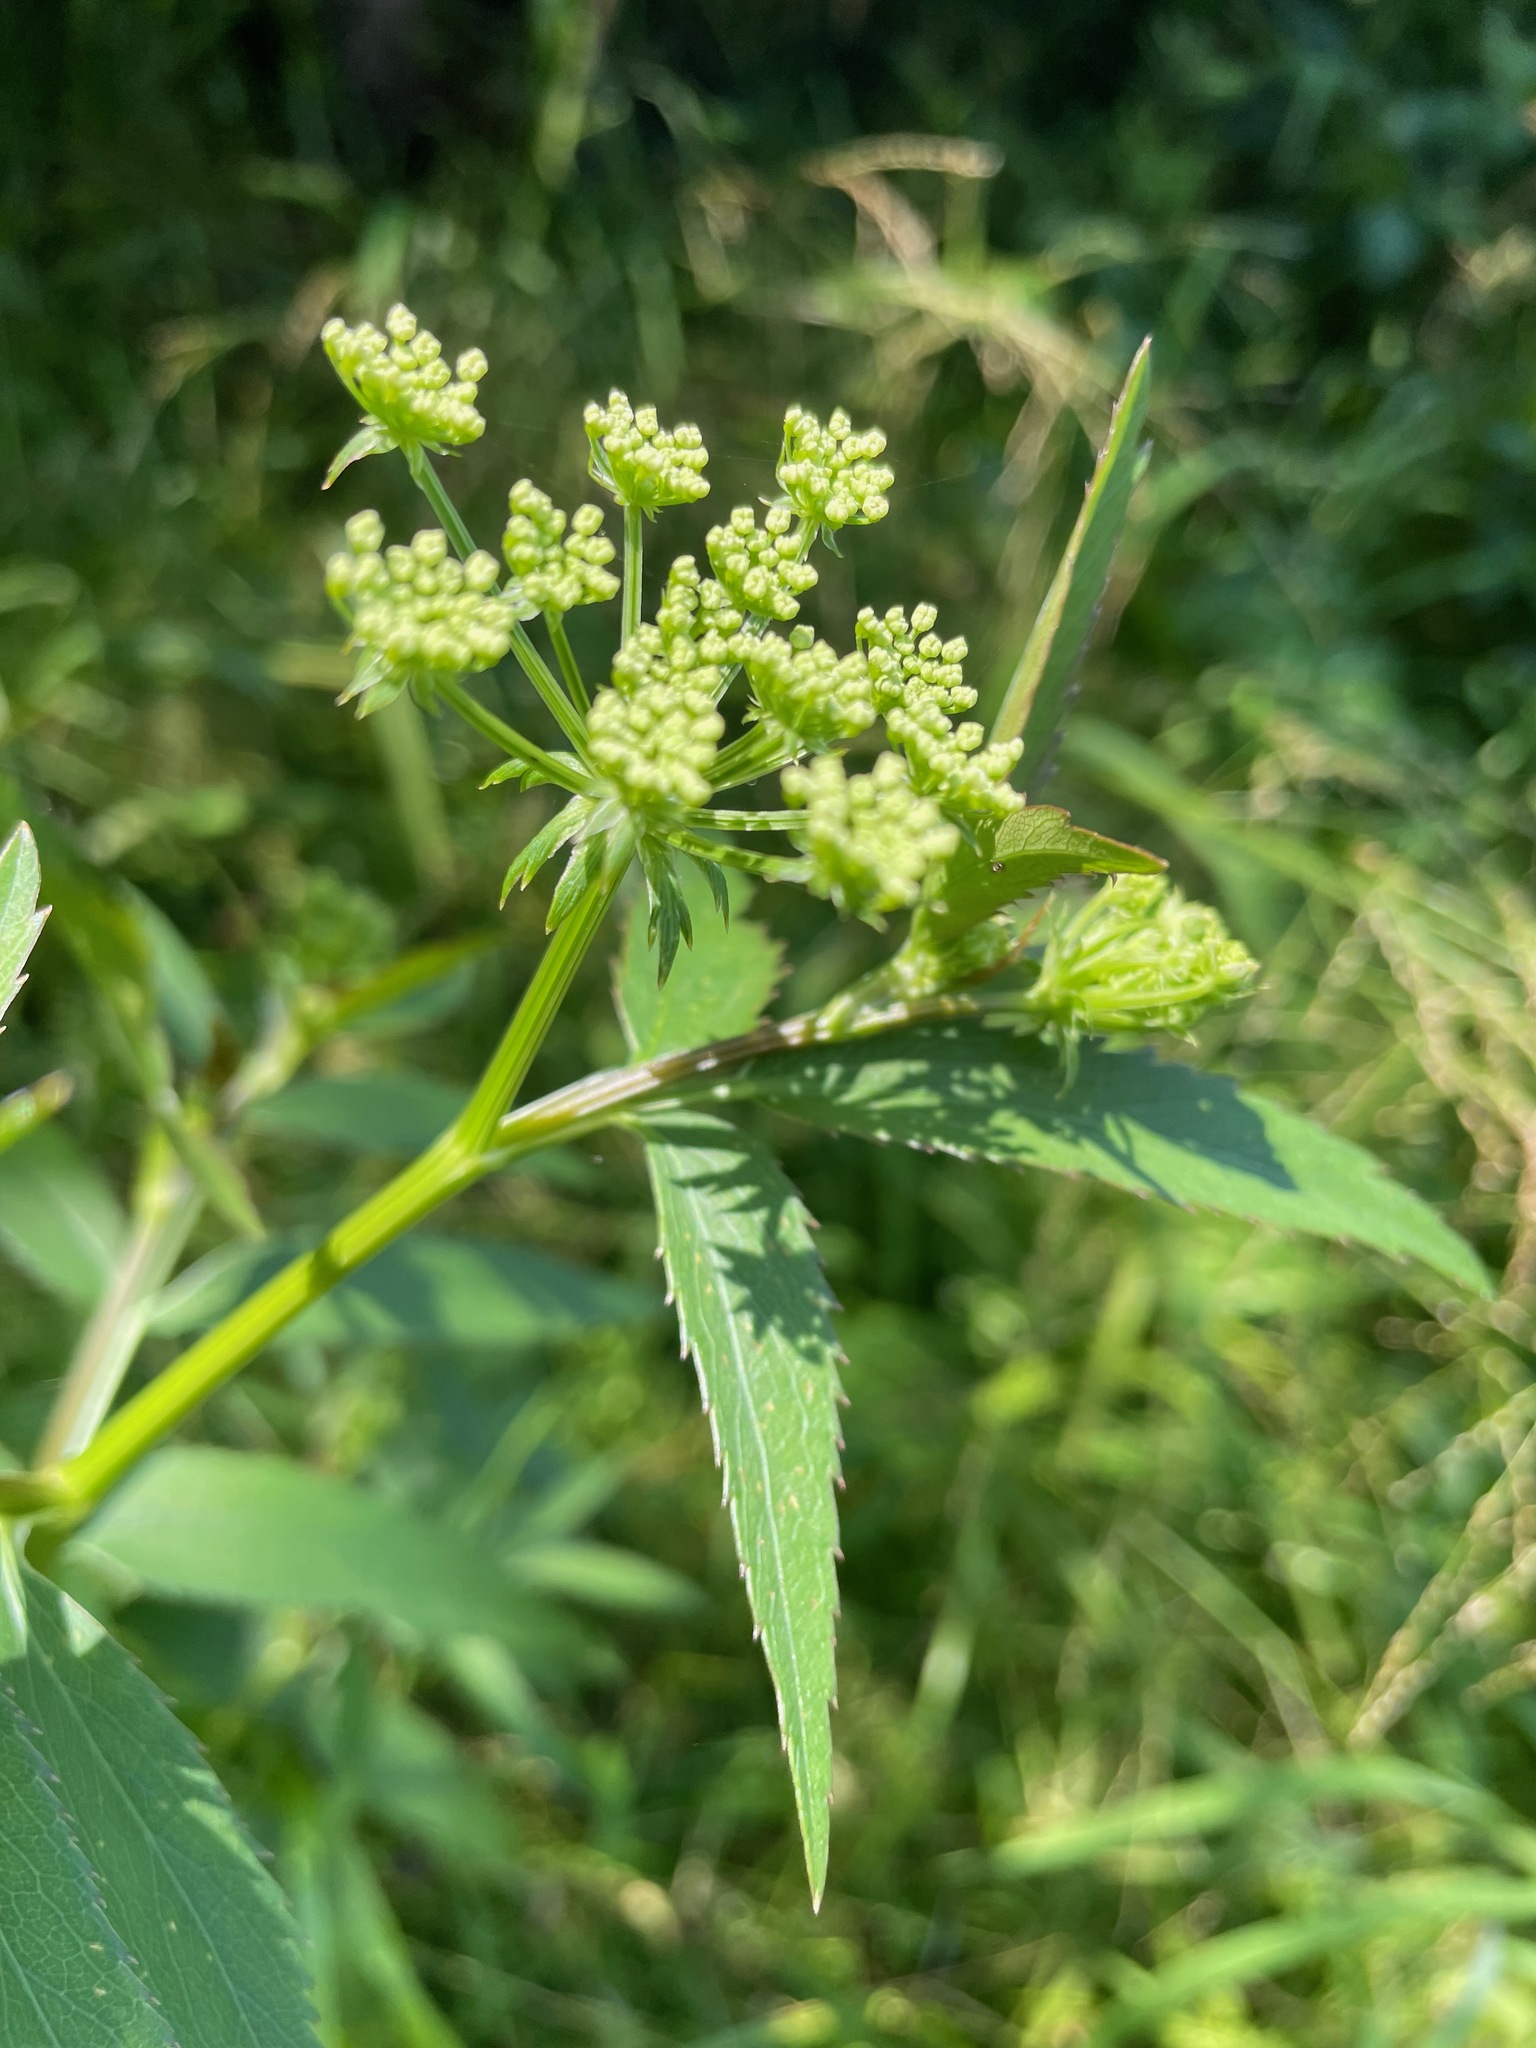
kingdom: Plantae
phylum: Tracheophyta
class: Magnoliopsida
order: Apiales
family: Apiaceae
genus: Sium
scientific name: Sium suave
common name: Hemlock water-parsnip
